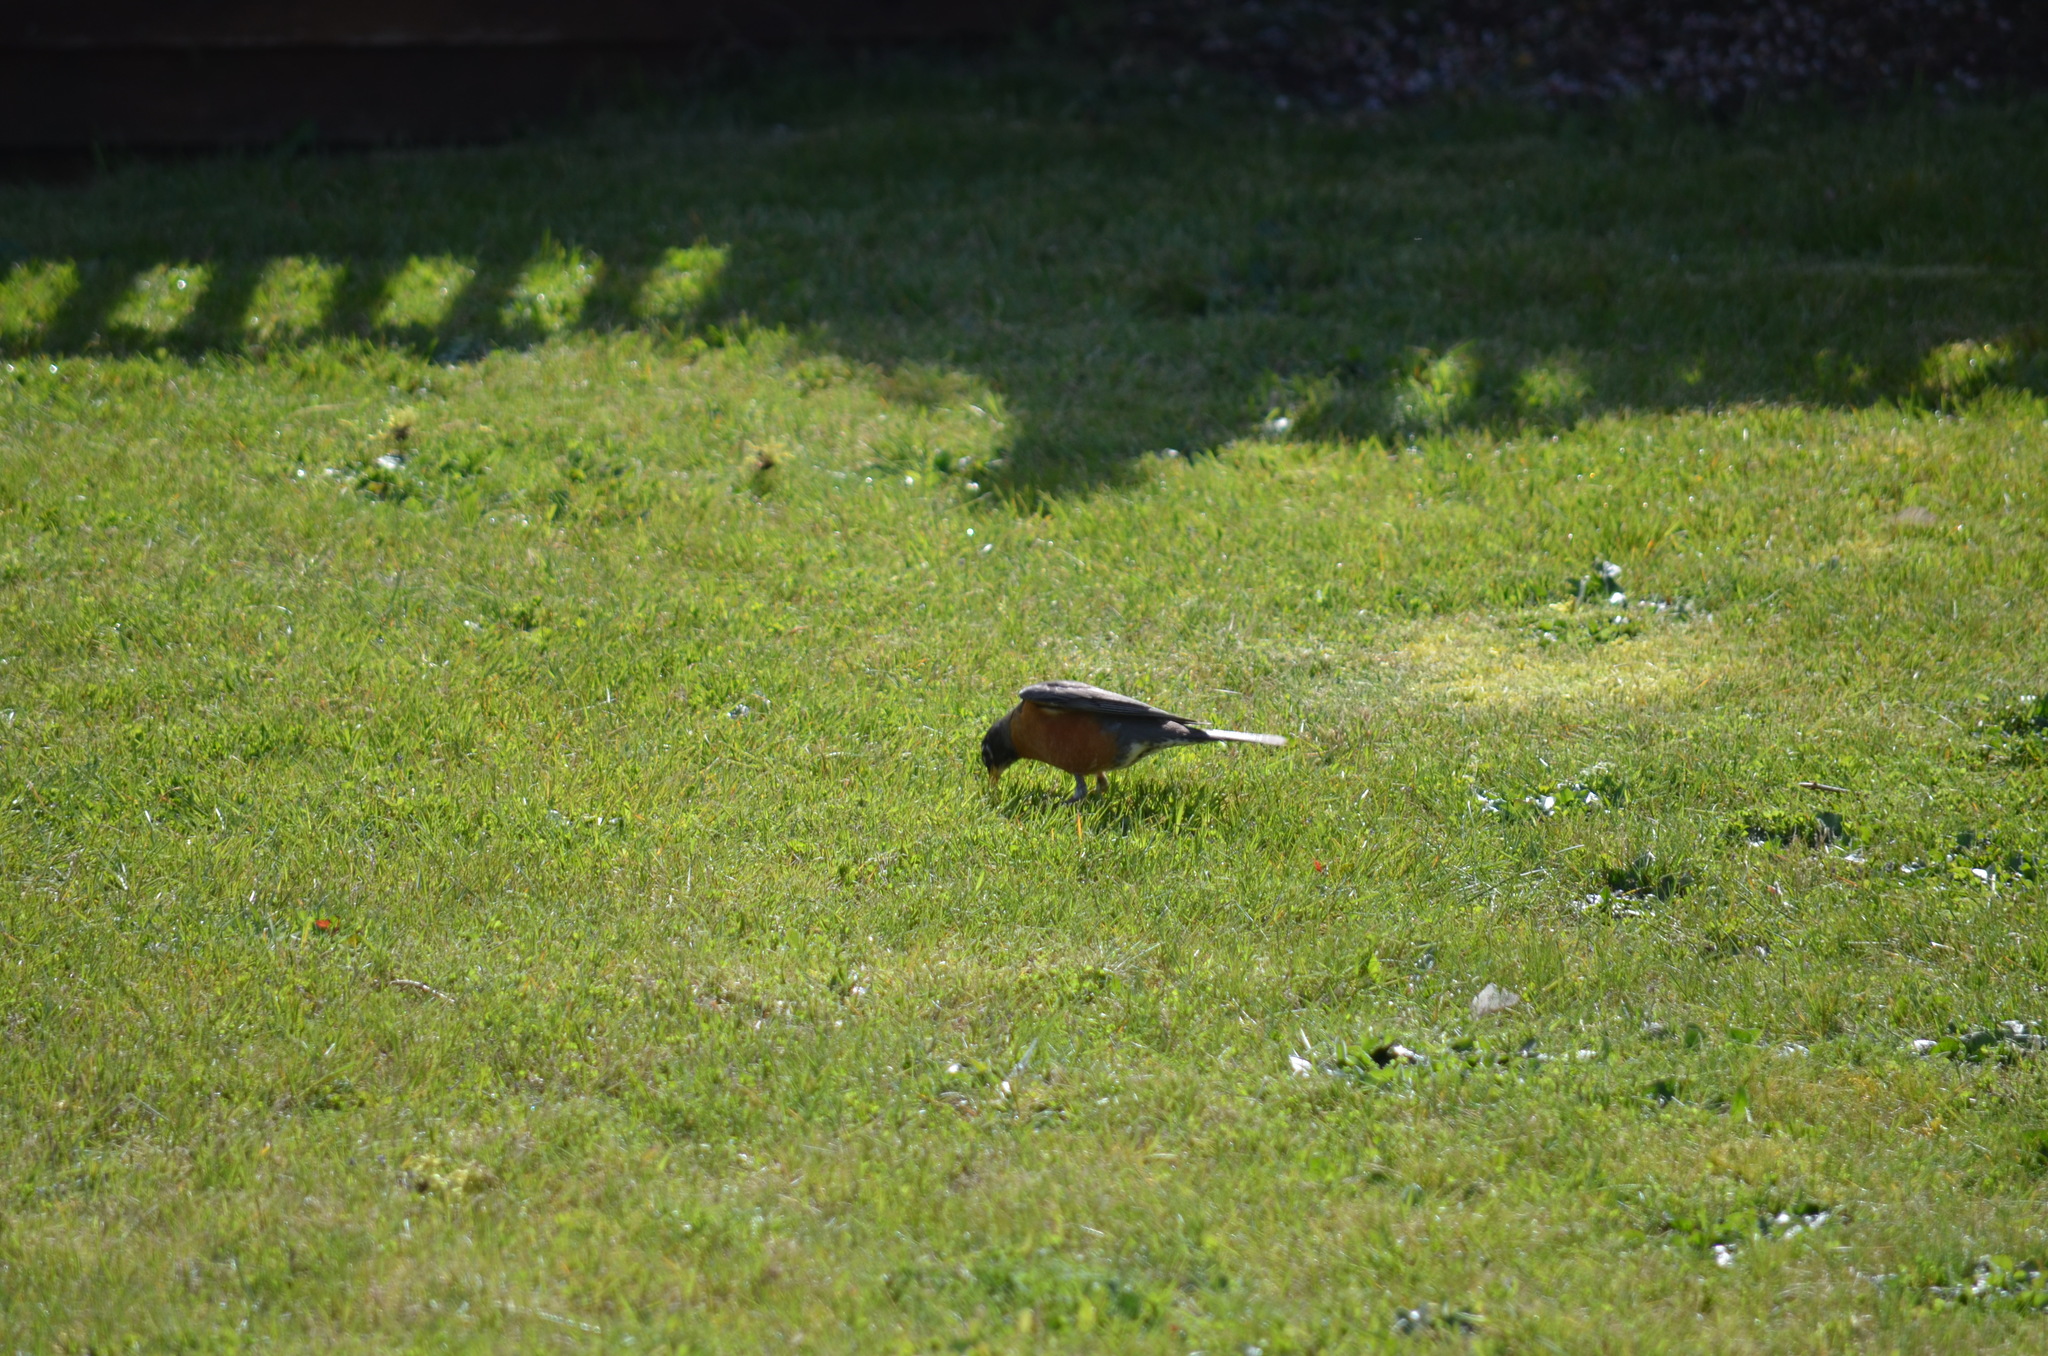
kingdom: Animalia
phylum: Chordata
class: Aves
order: Passeriformes
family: Turdidae
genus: Turdus
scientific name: Turdus migratorius
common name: American robin
